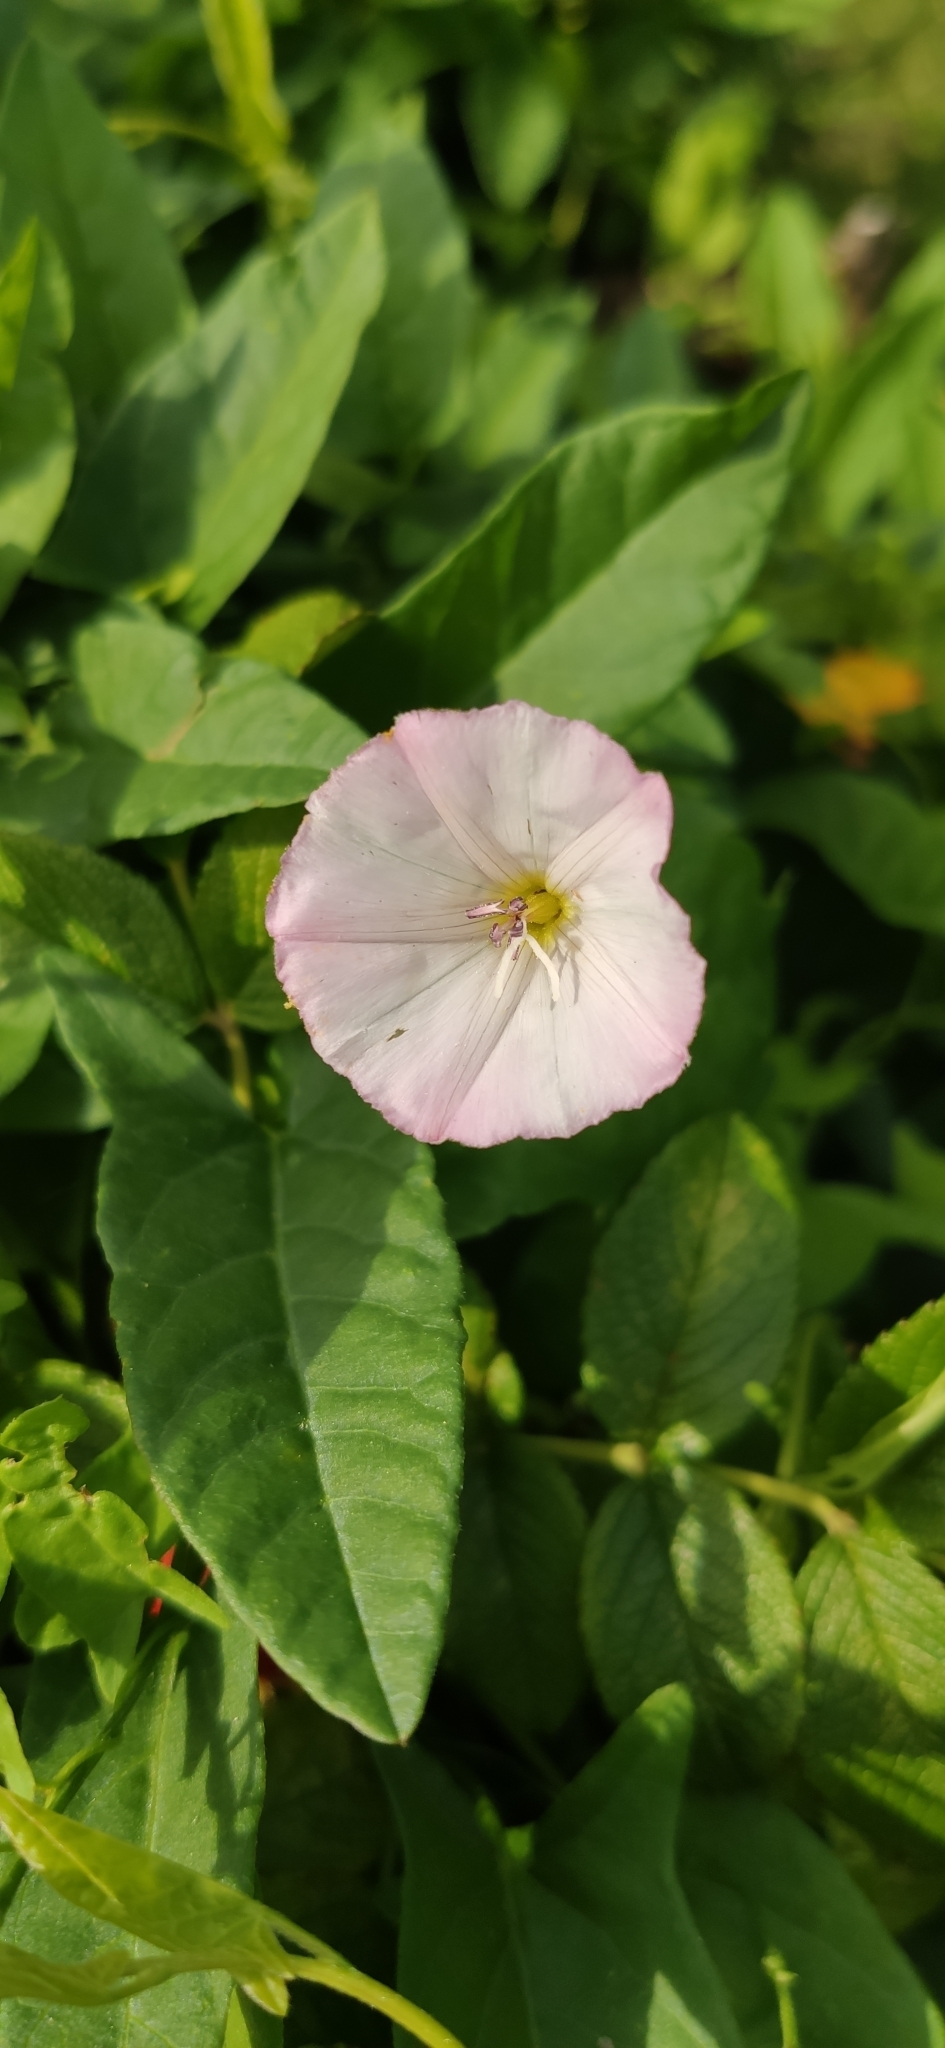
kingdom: Plantae
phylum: Tracheophyta
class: Magnoliopsida
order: Solanales
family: Convolvulaceae
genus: Convolvulus
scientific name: Convolvulus arvensis
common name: Field bindweed
